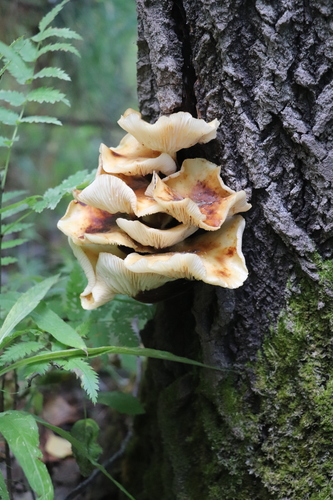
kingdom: Fungi
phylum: Basidiomycota
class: Agaricomycetes
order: Agaricales
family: Physalacriaceae
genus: Flammulina
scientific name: Flammulina velutipes
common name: Velvet shank
